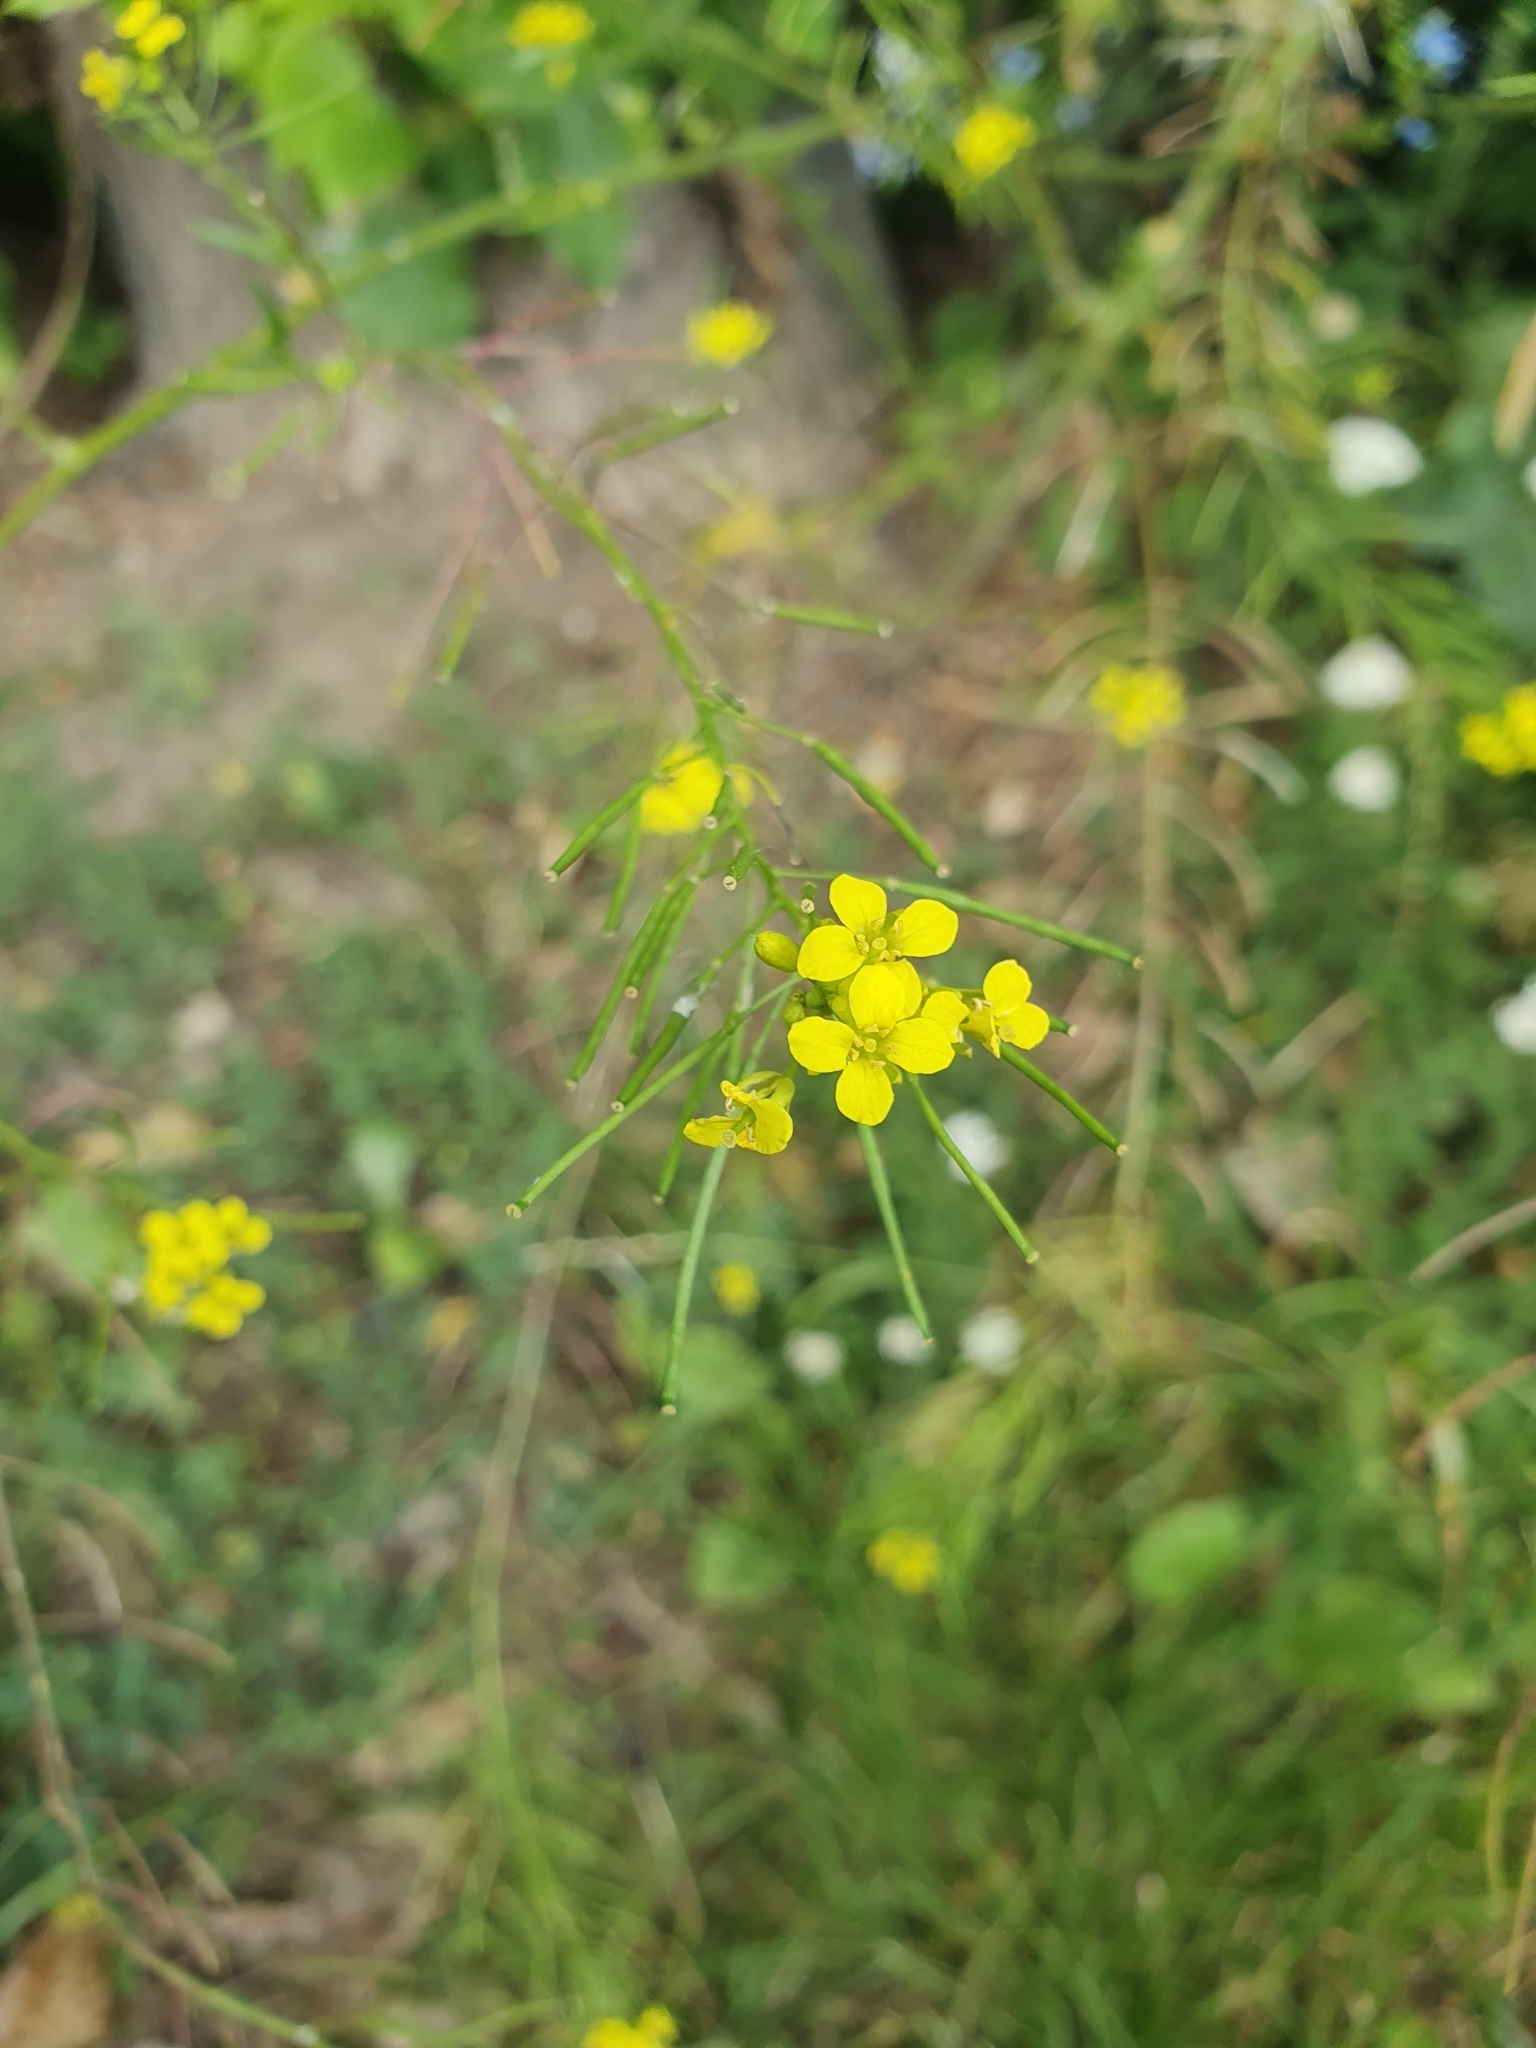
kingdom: Plantae
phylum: Tracheophyta
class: Magnoliopsida
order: Brassicales
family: Brassicaceae
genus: Sisymbrium
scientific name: Sisymbrium loeselii
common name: False london-rocket
